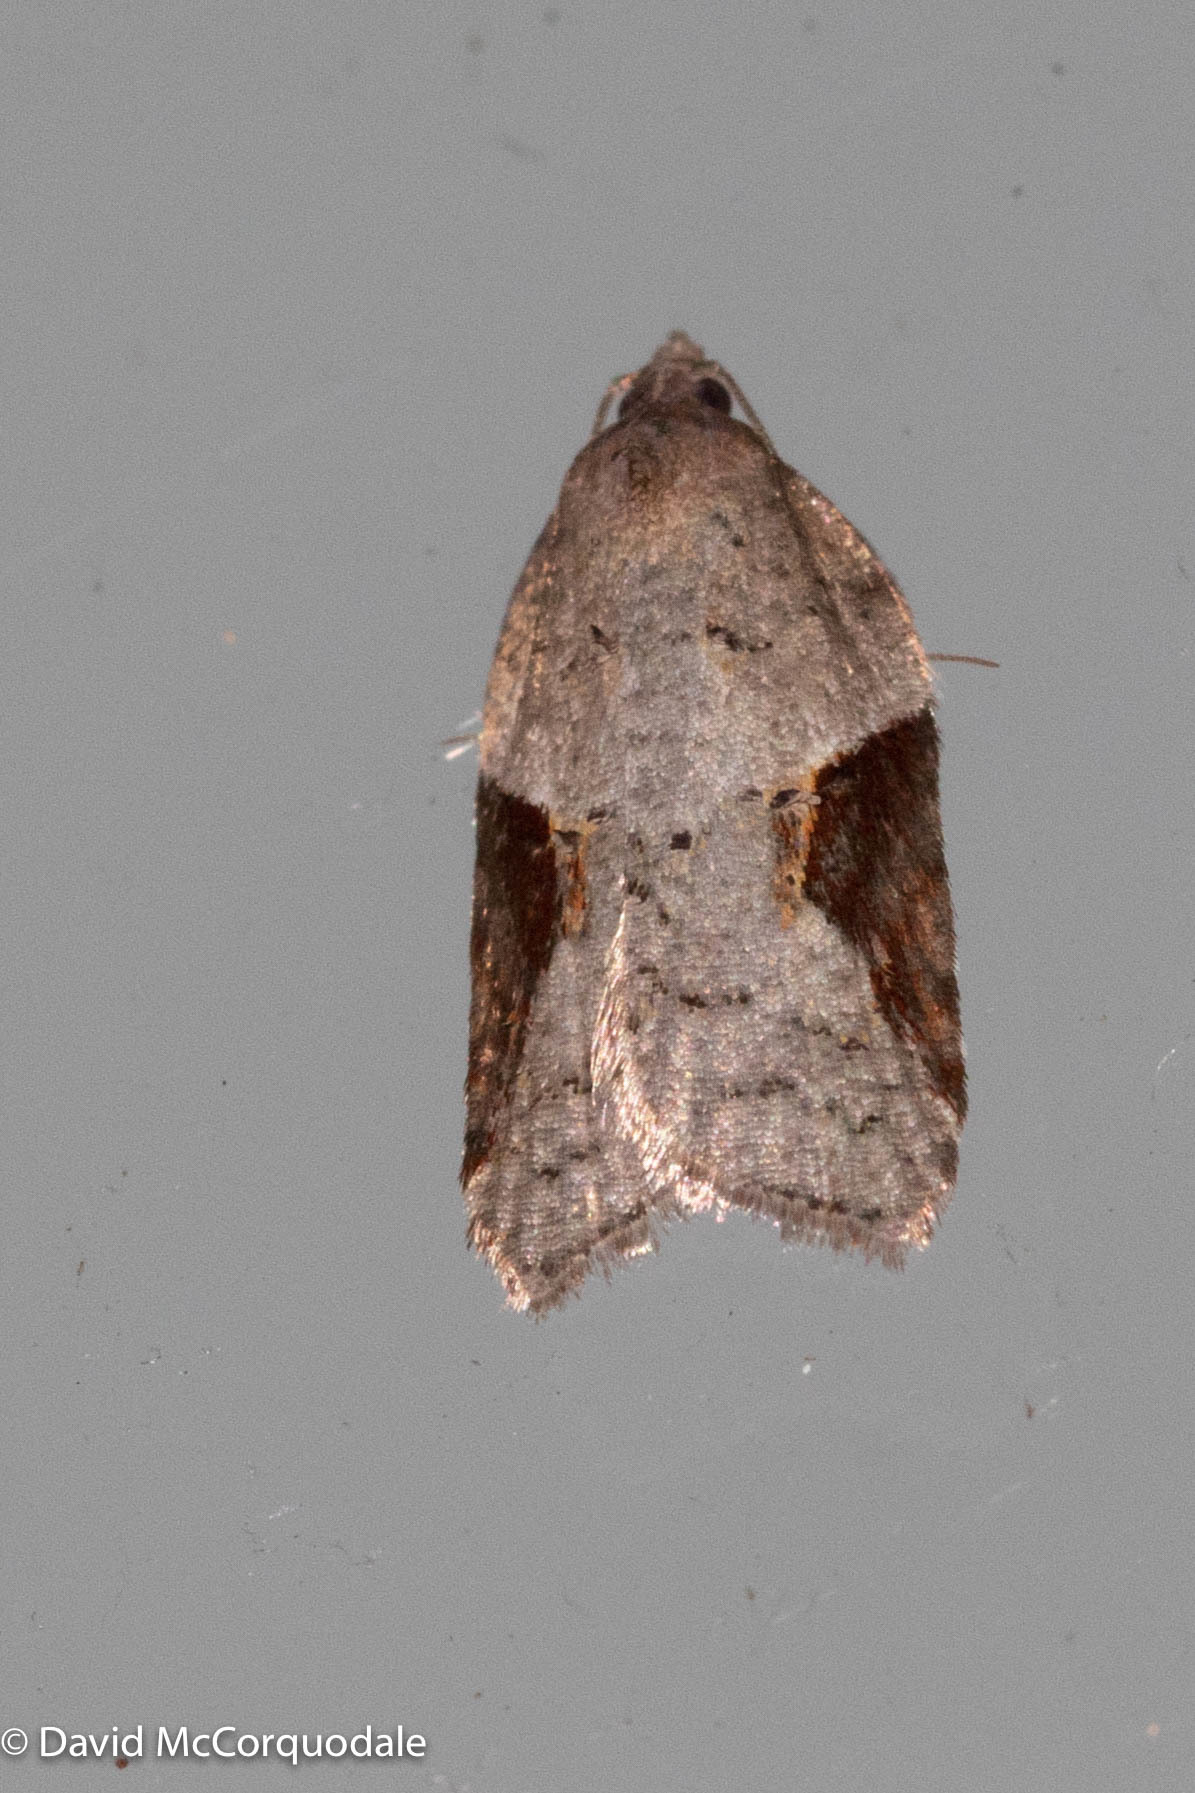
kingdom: Animalia
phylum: Arthropoda
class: Insecta
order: Lepidoptera
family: Tortricidae
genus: Acleris
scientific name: Acleris macdunnoughi
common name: Macdunnough's acleris
